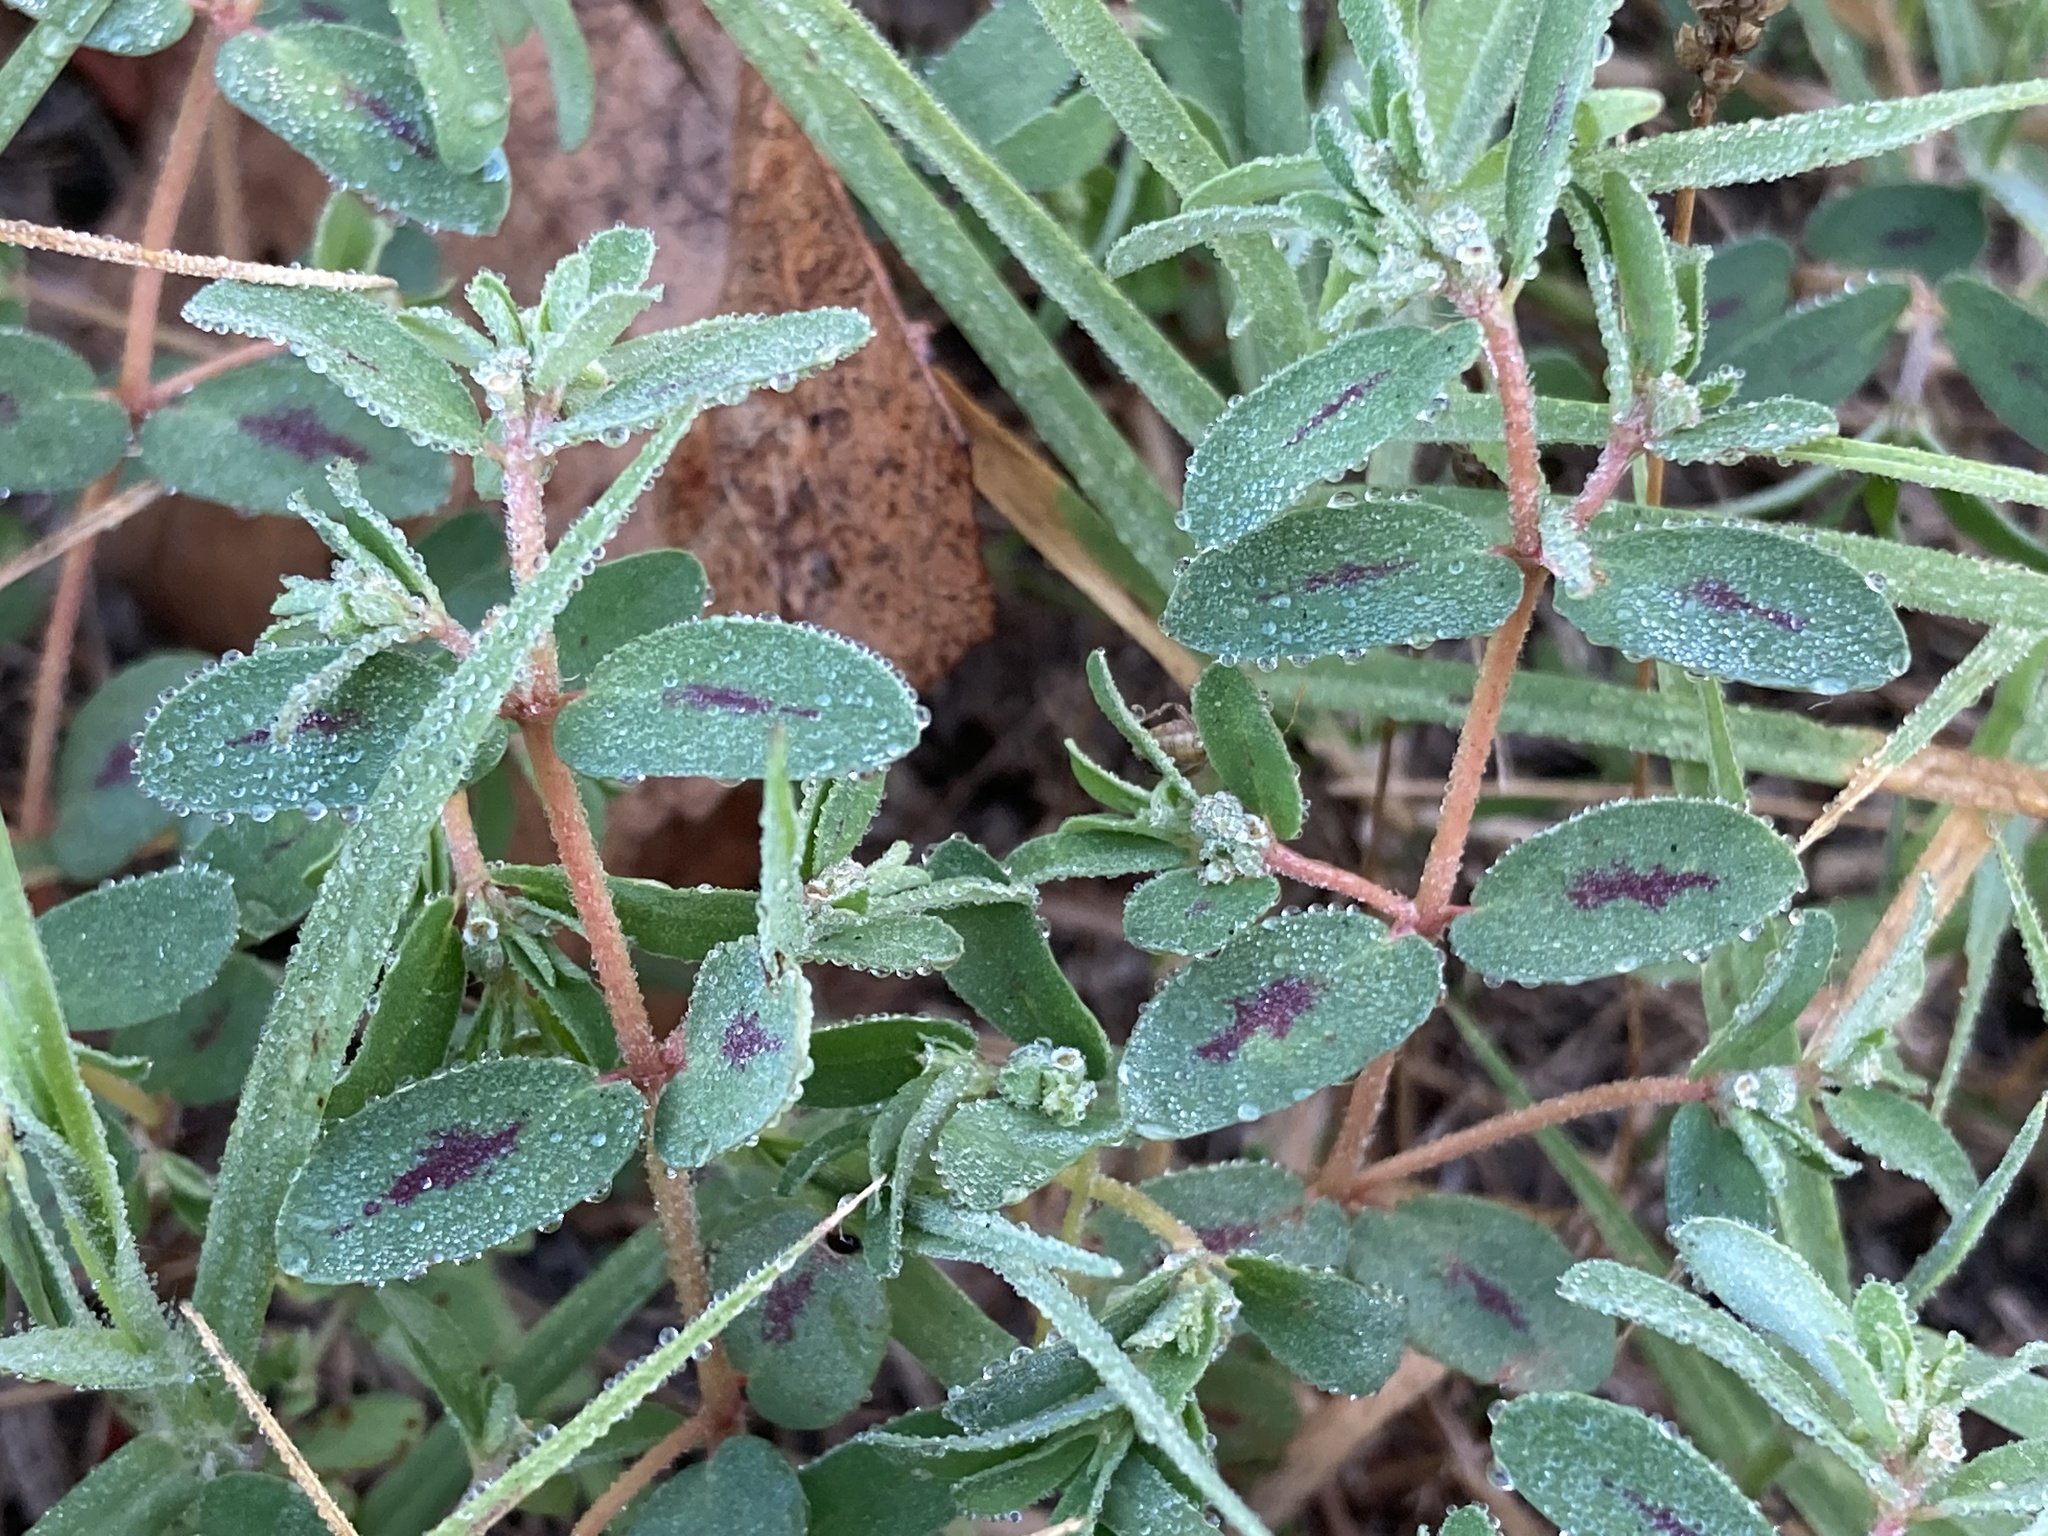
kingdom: Plantae
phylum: Tracheophyta
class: Magnoliopsida
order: Malpighiales
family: Euphorbiaceae
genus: Euphorbia
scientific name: Euphorbia maculata
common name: Spotted spurge
